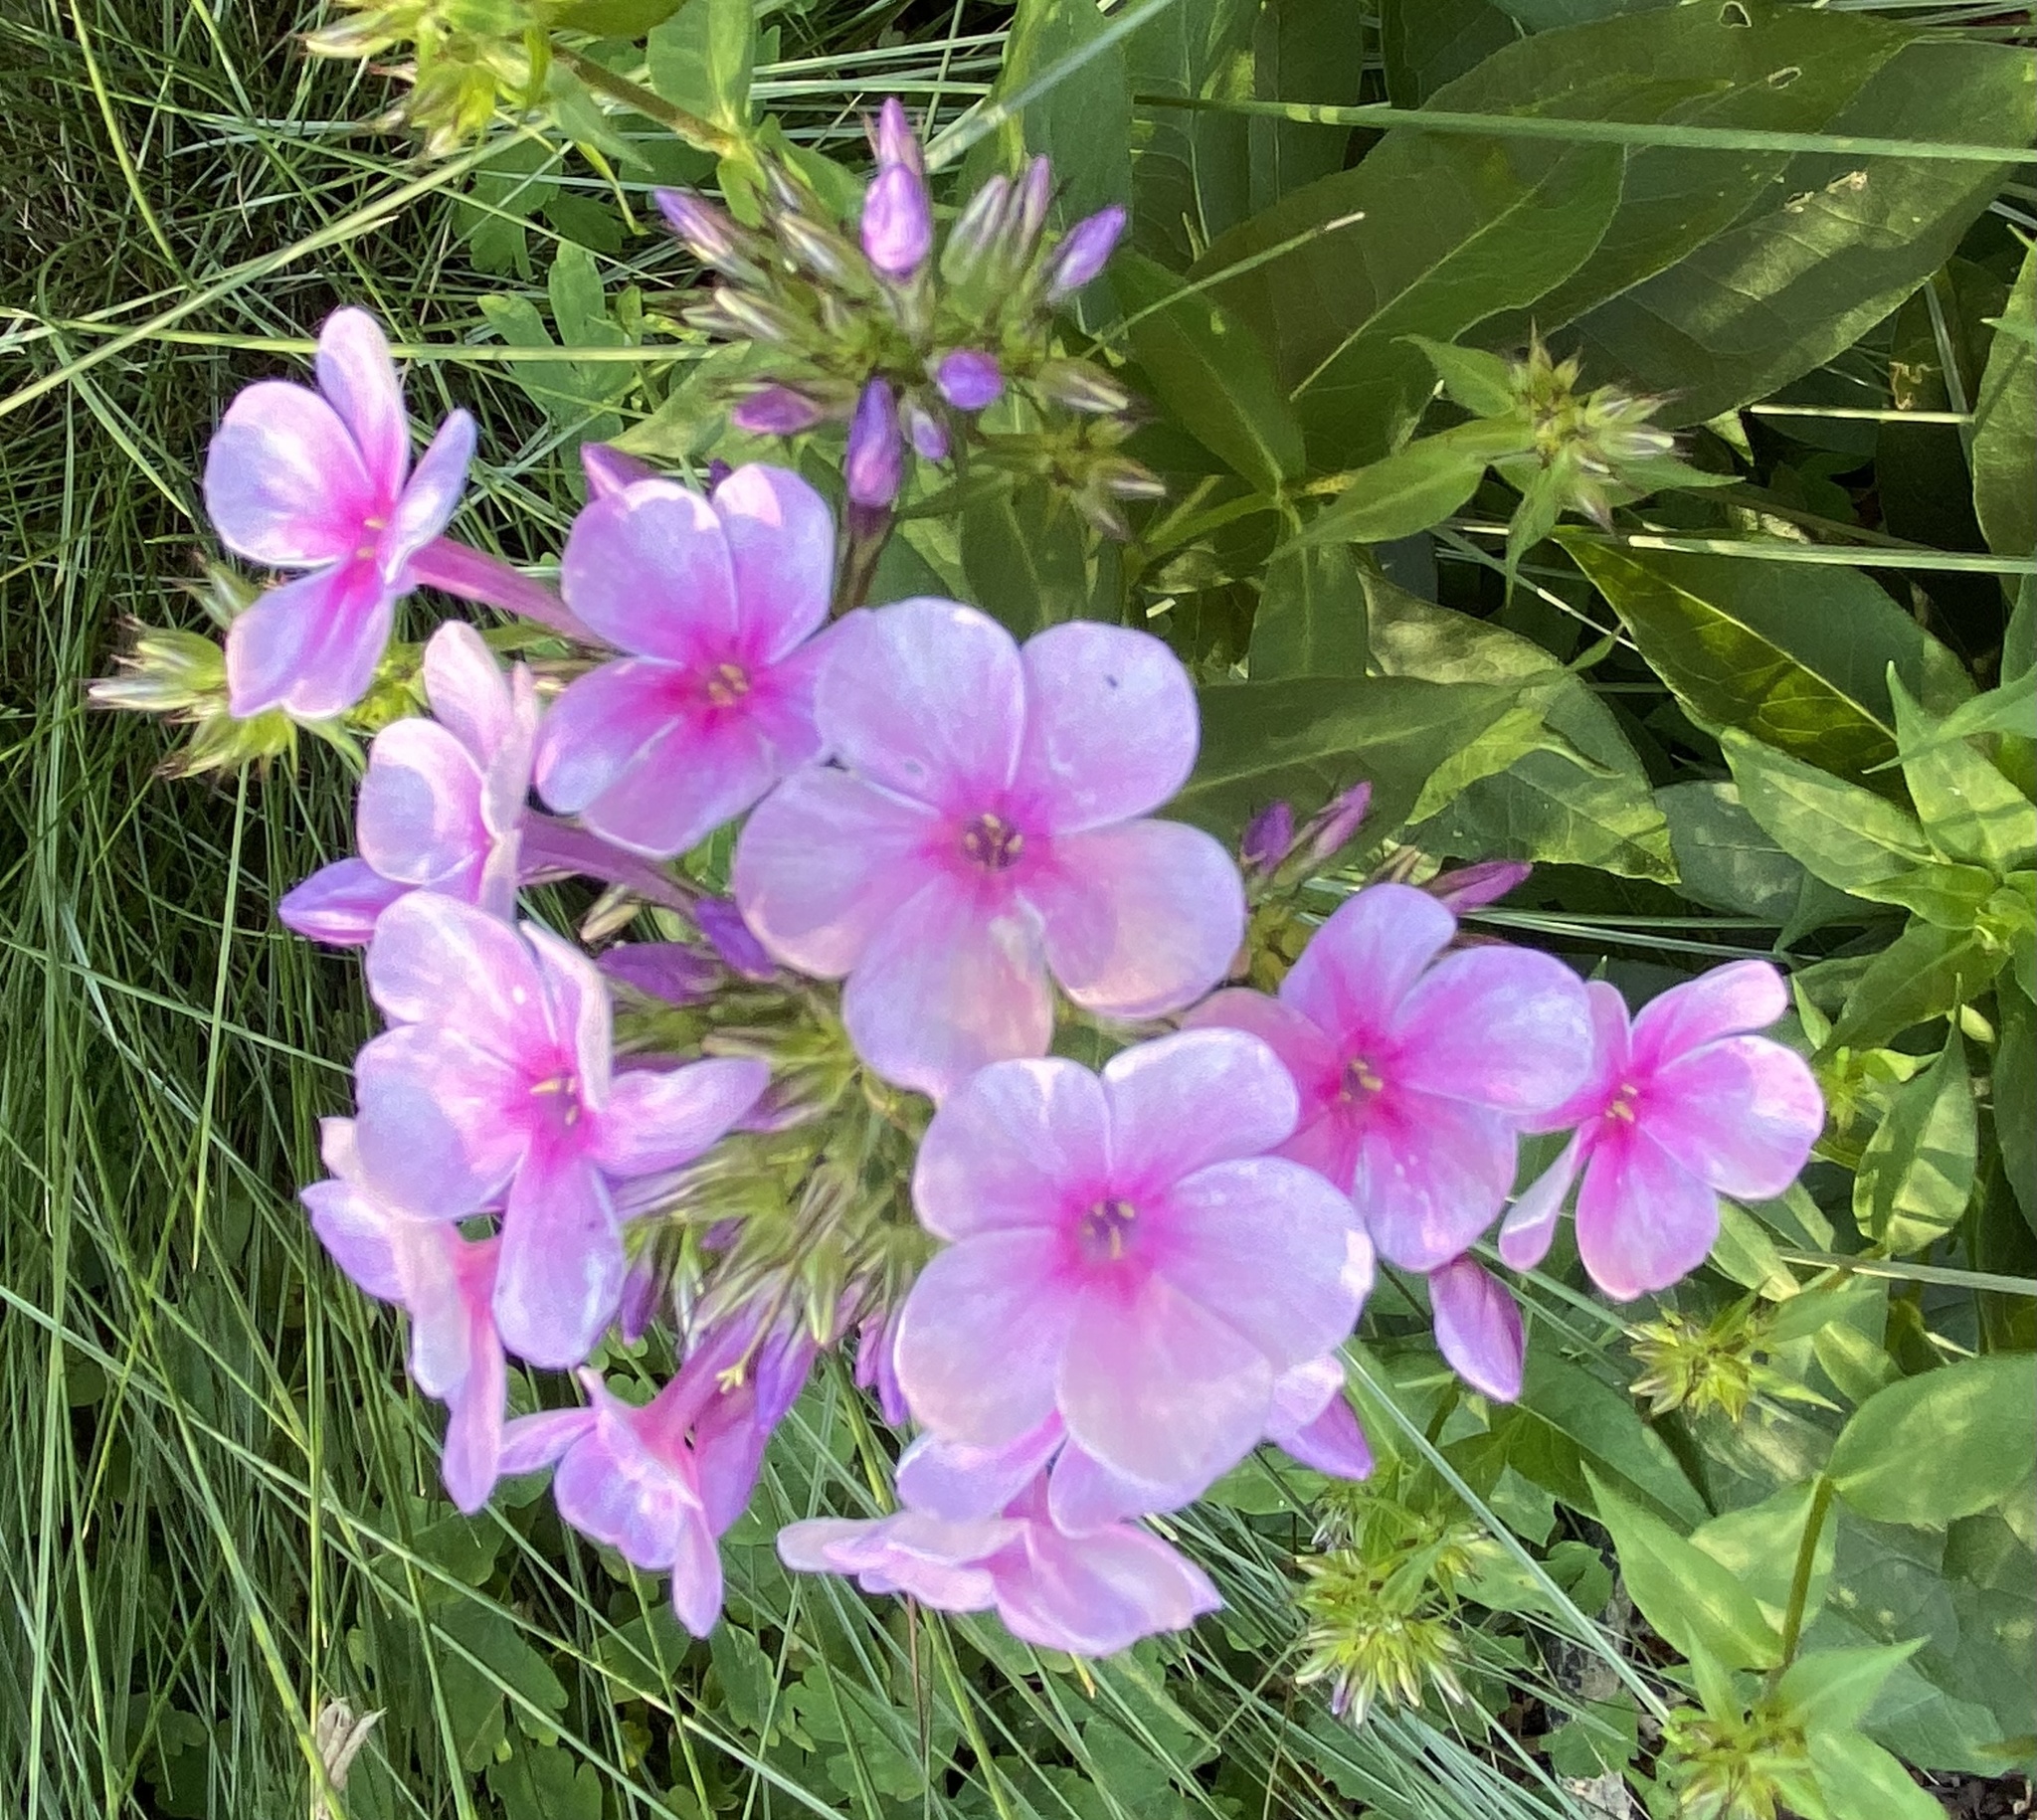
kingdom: Plantae
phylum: Tracheophyta
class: Magnoliopsida
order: Ericales
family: Polemoniaceae
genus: Phlox
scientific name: Phlox paniculata
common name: Fall phlox
